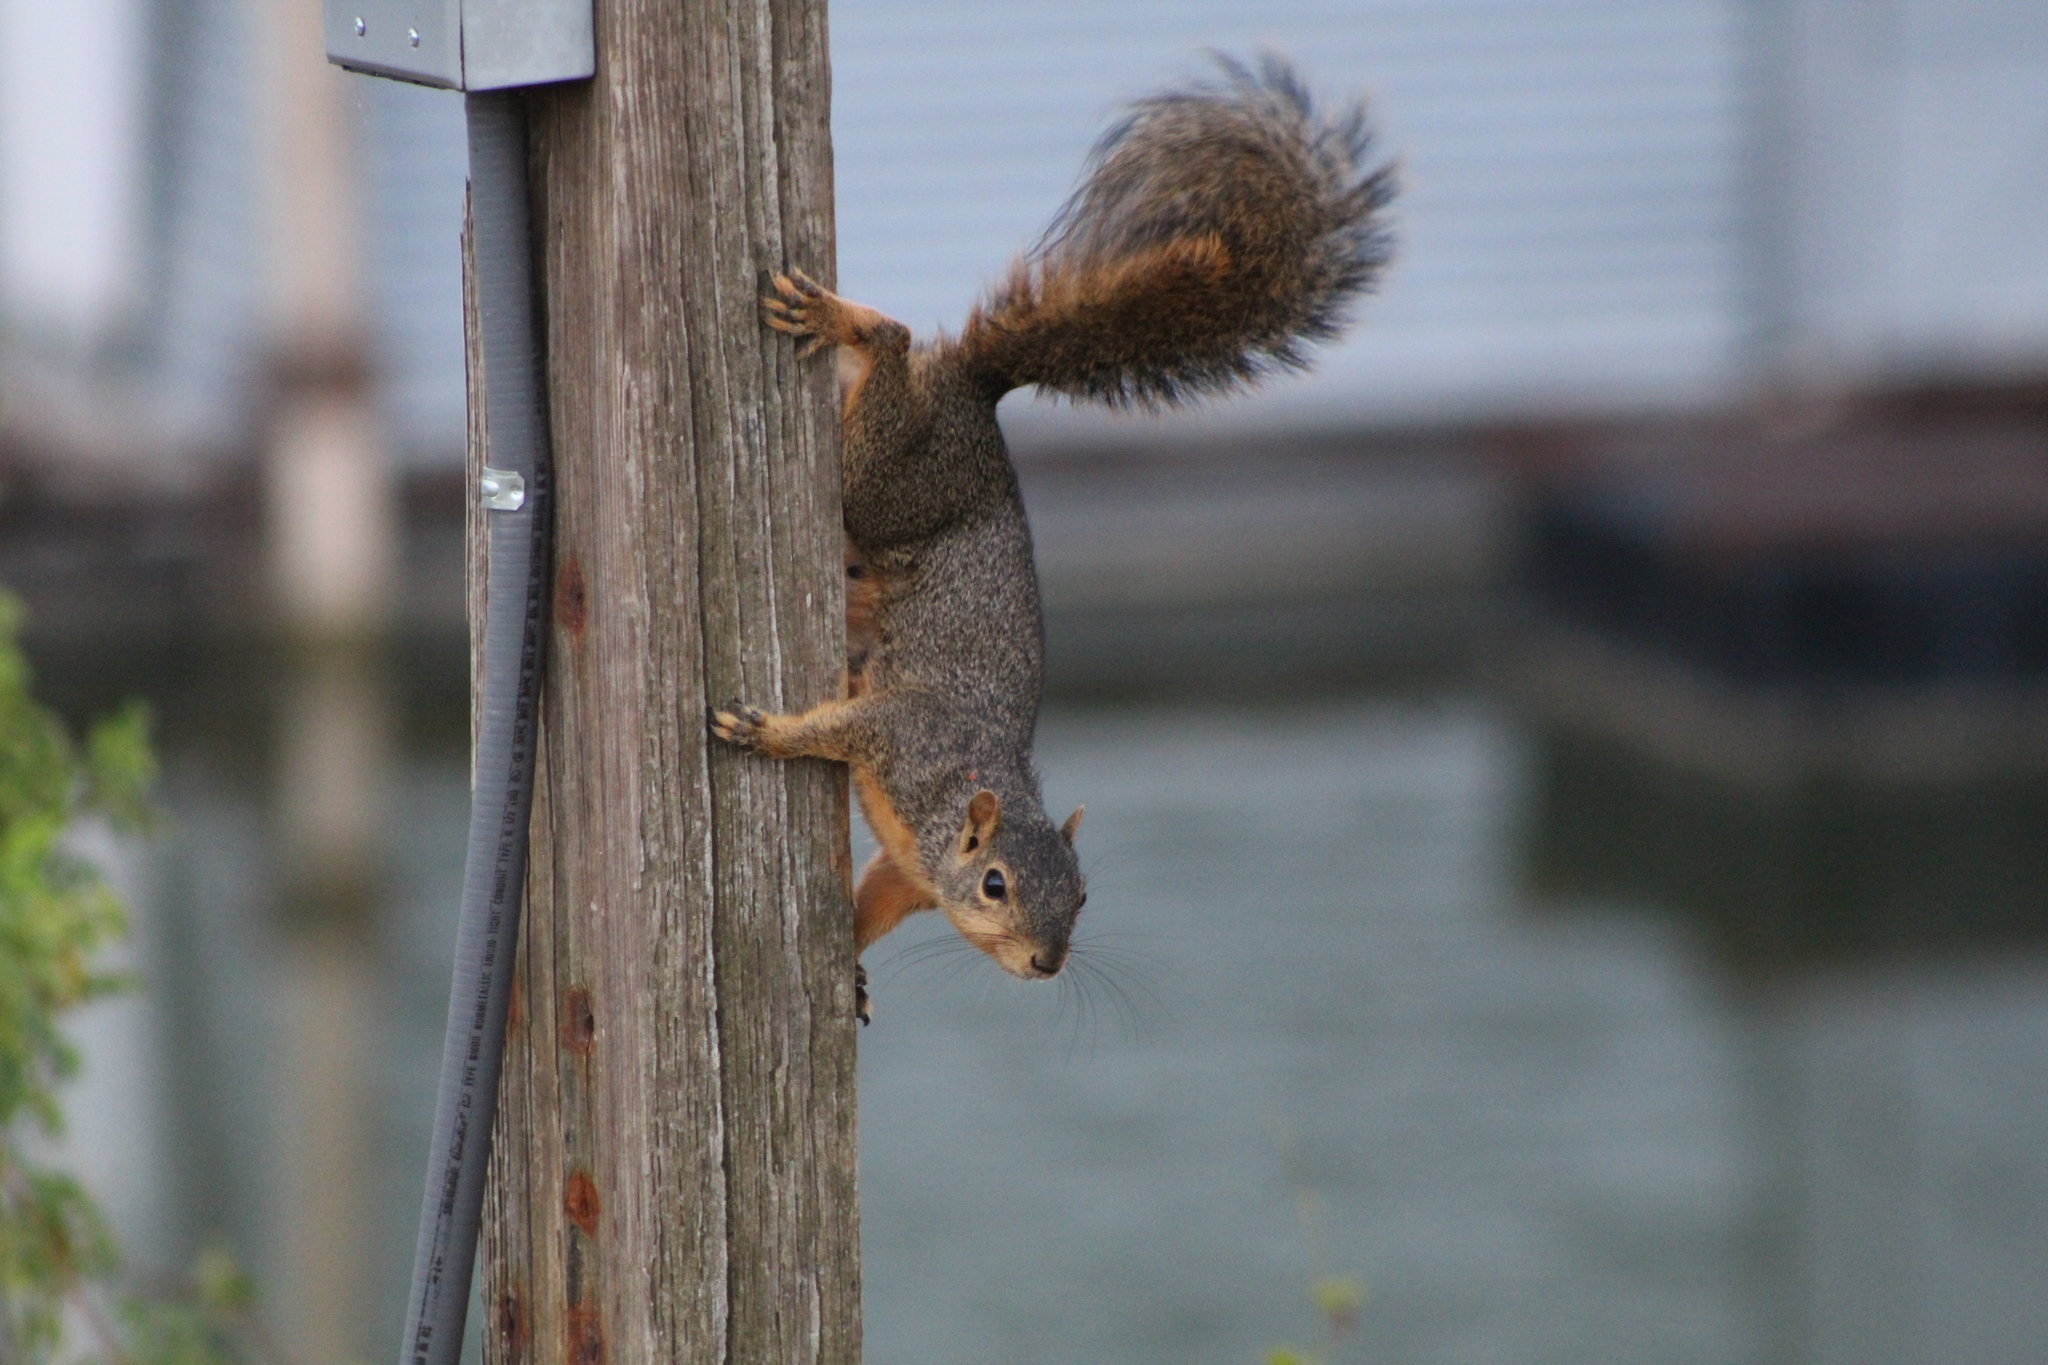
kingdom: Animalia
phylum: Chordata
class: Mammalia
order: Rodentia
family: Sciuridae
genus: Sciurus
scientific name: Sciurus niger
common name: Fox squirrel
